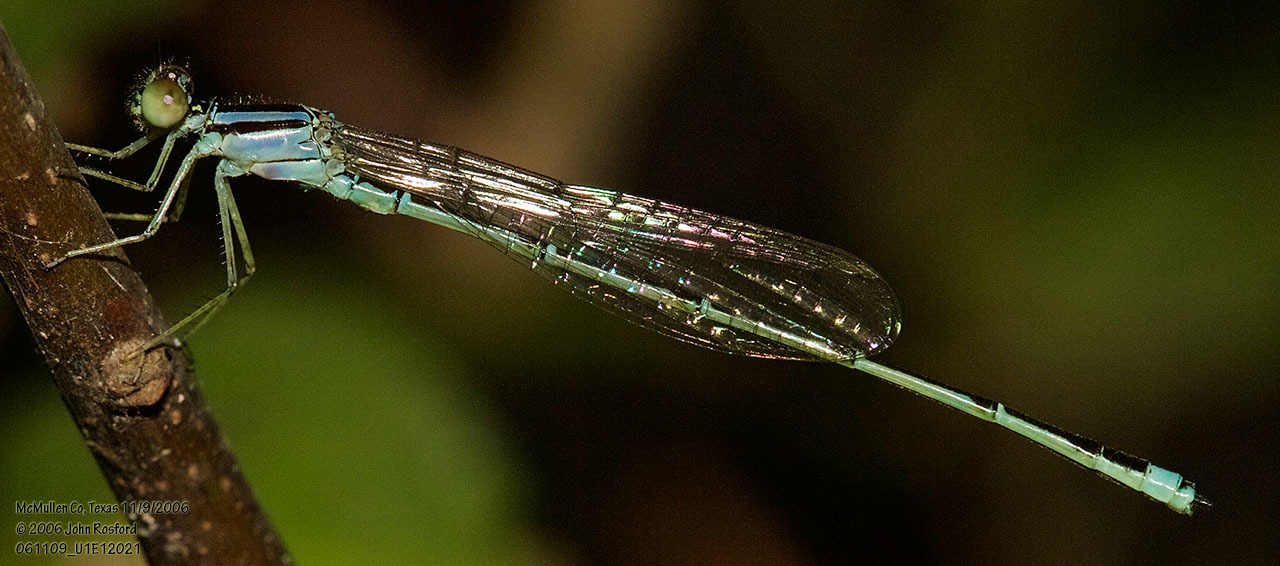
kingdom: Animalia
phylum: Arthropoda
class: Insecta
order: Odonata
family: Coenagrionidae
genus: Enallagma
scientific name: Enallagma signatum
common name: Orange bluet
